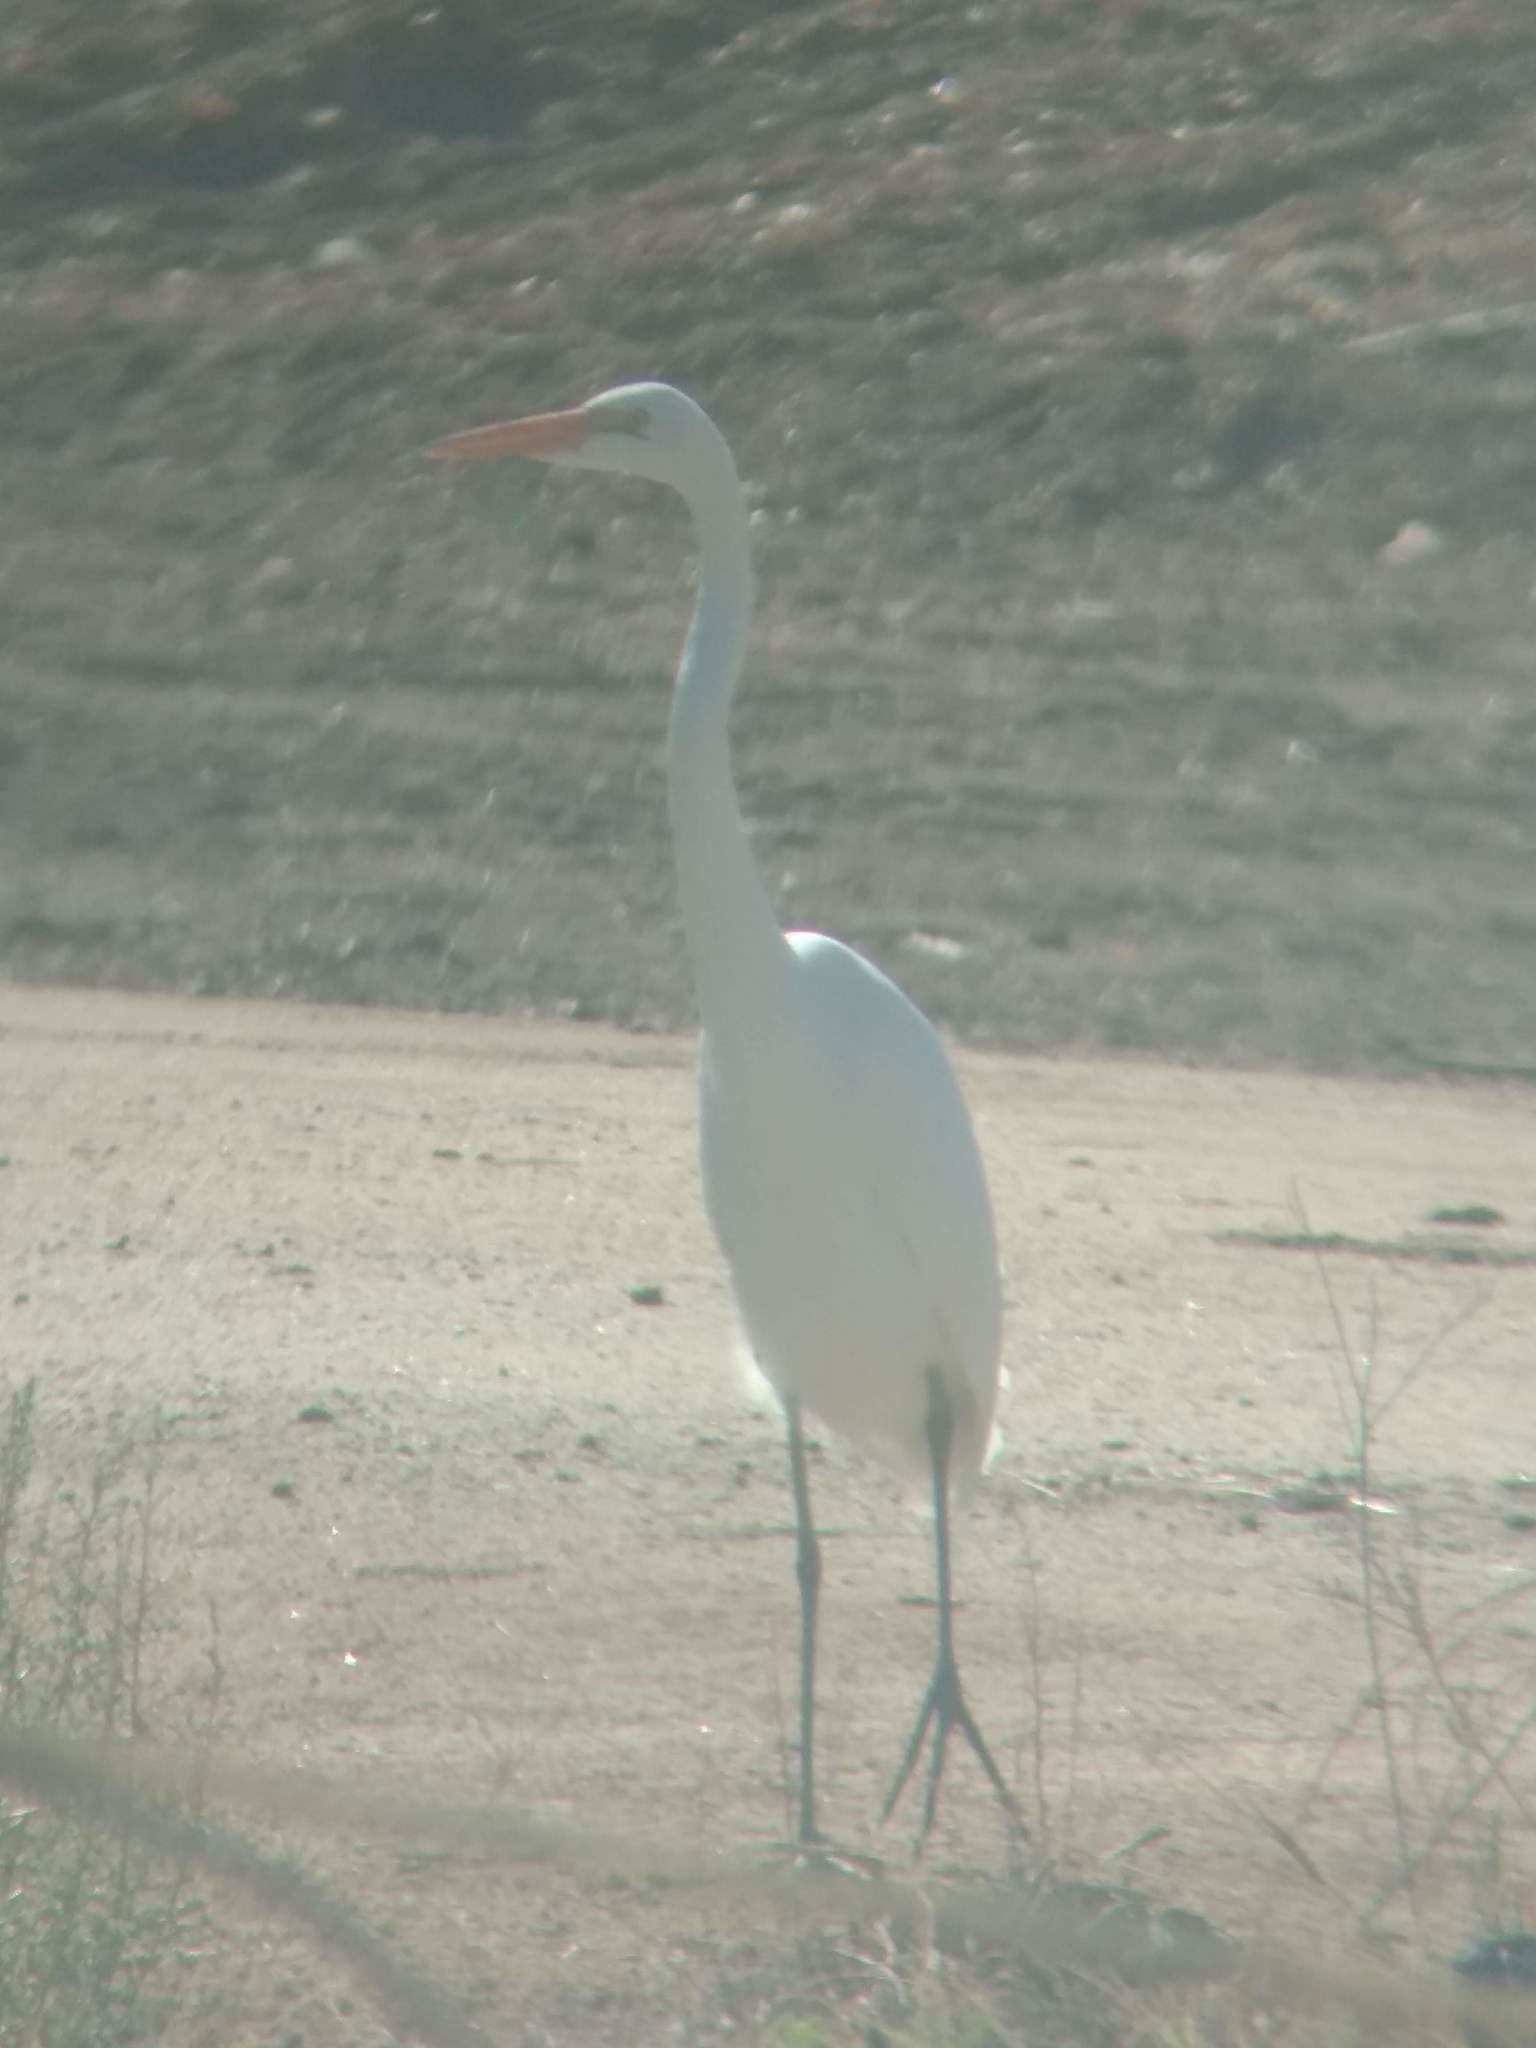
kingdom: Animalia
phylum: Chordata
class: Aves
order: Pelecaniformes
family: Ardeidae
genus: Ardea
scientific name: Ardea alba
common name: Great egret
